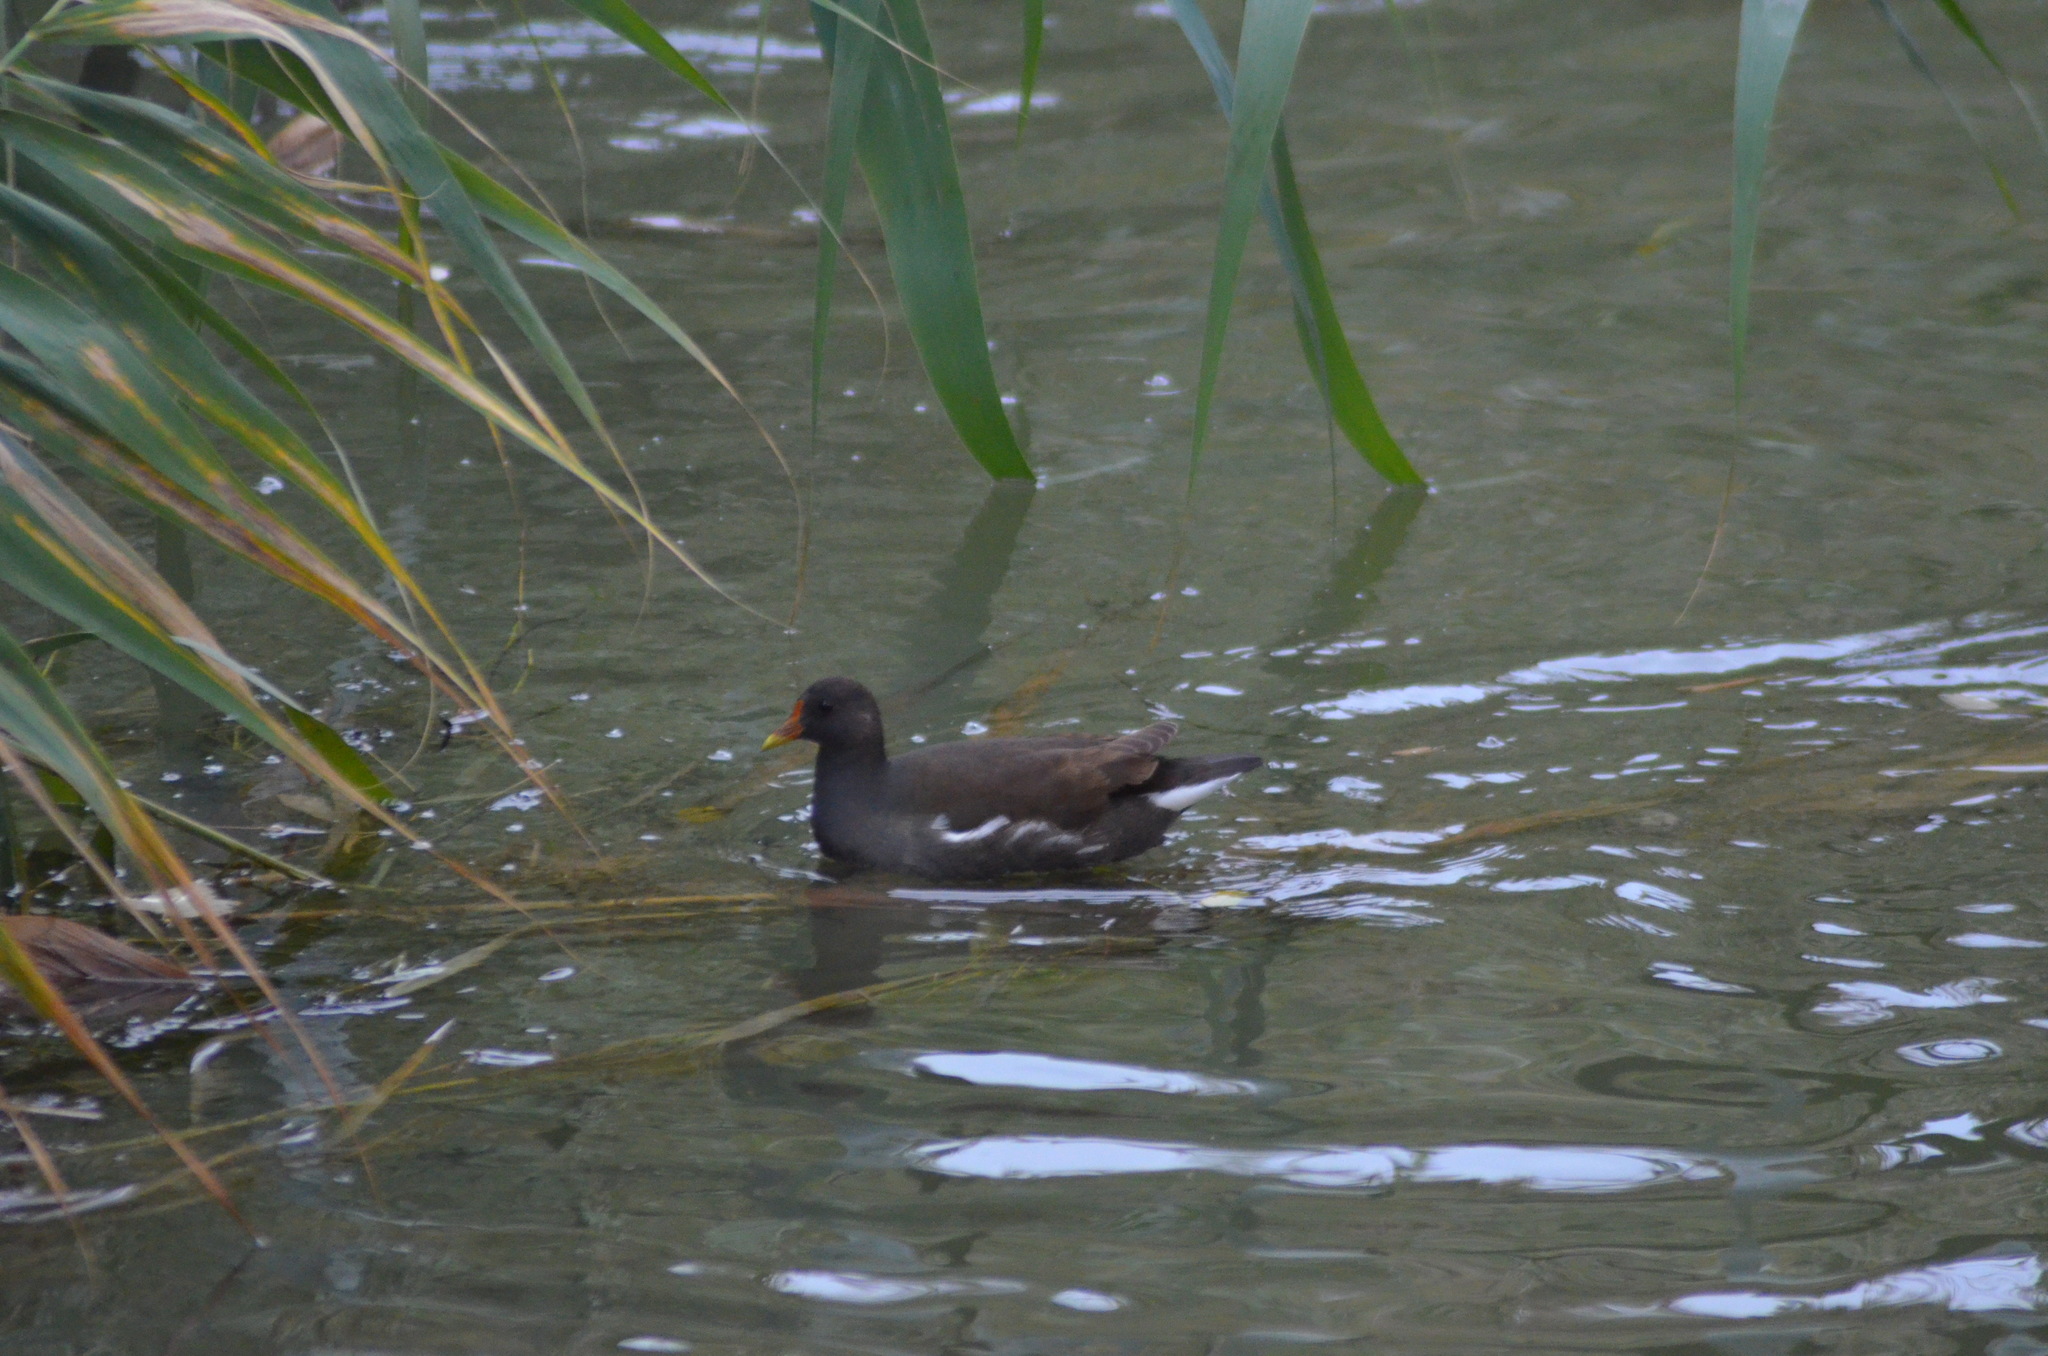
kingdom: Animalia
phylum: Chordata
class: Aves
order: Gruiformes
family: Rallidae
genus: Gallinula
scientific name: Gallinula chloropus
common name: Common moorhen
